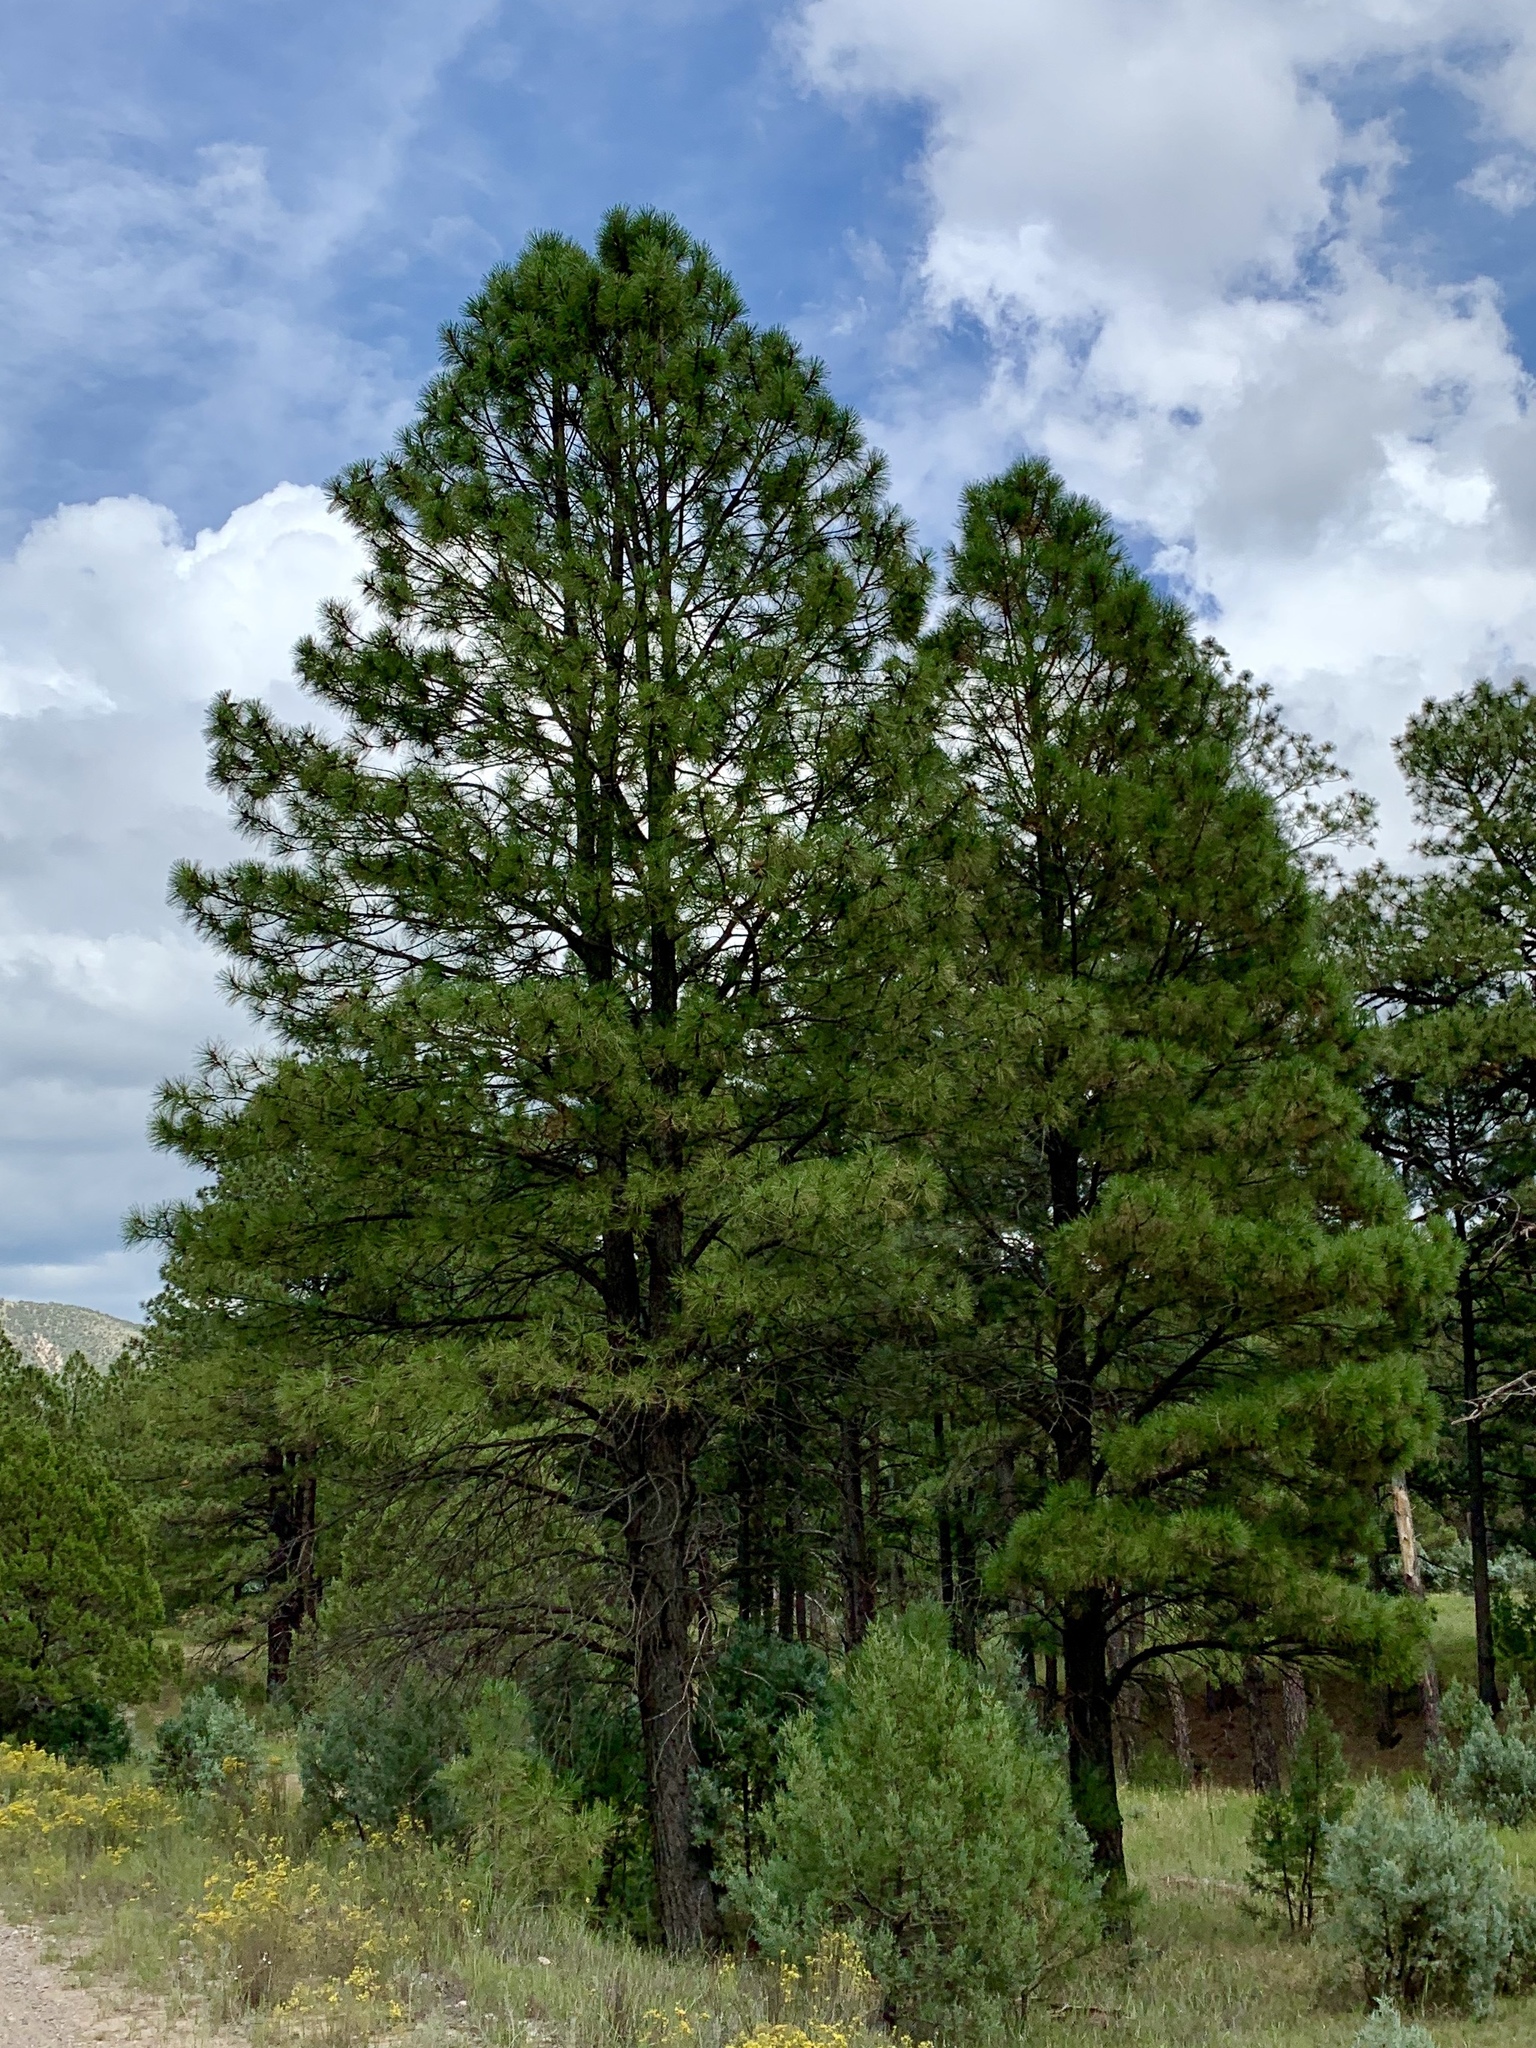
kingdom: Plantae
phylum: Tracheophyta
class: Pinopsida
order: Pinales
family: Pinaceae
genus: Pinus
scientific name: Pinus ponderosa
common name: Western yellow-pine
